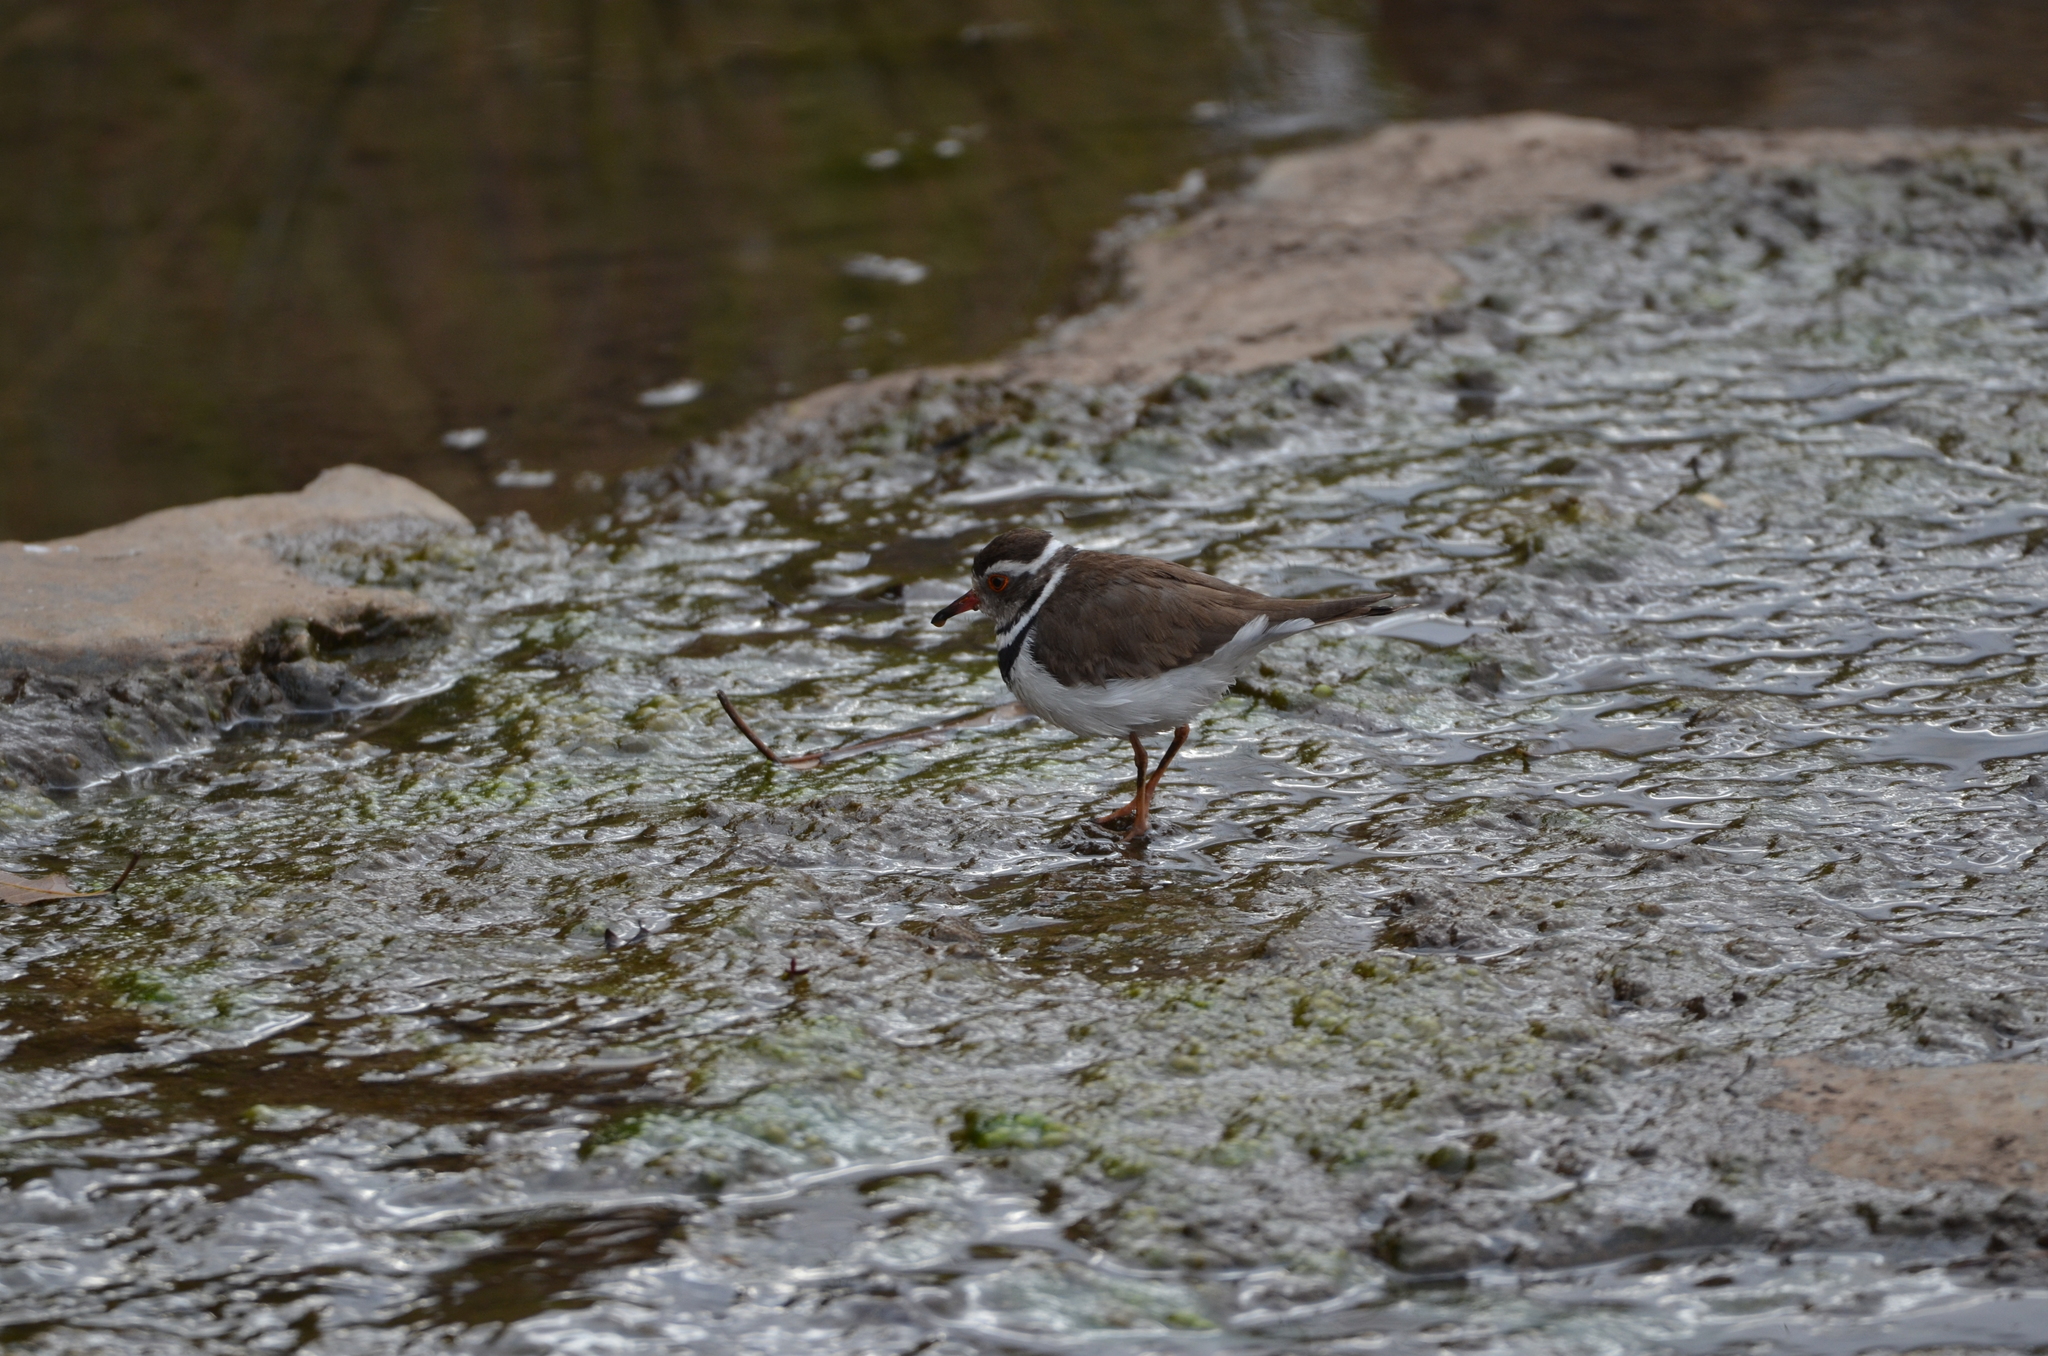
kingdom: Animalia
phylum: Chordata
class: Aves
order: Charadriiformes
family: Charadriidae
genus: Charadrius
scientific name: Charadrius tricollaris
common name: Three-banded plover
